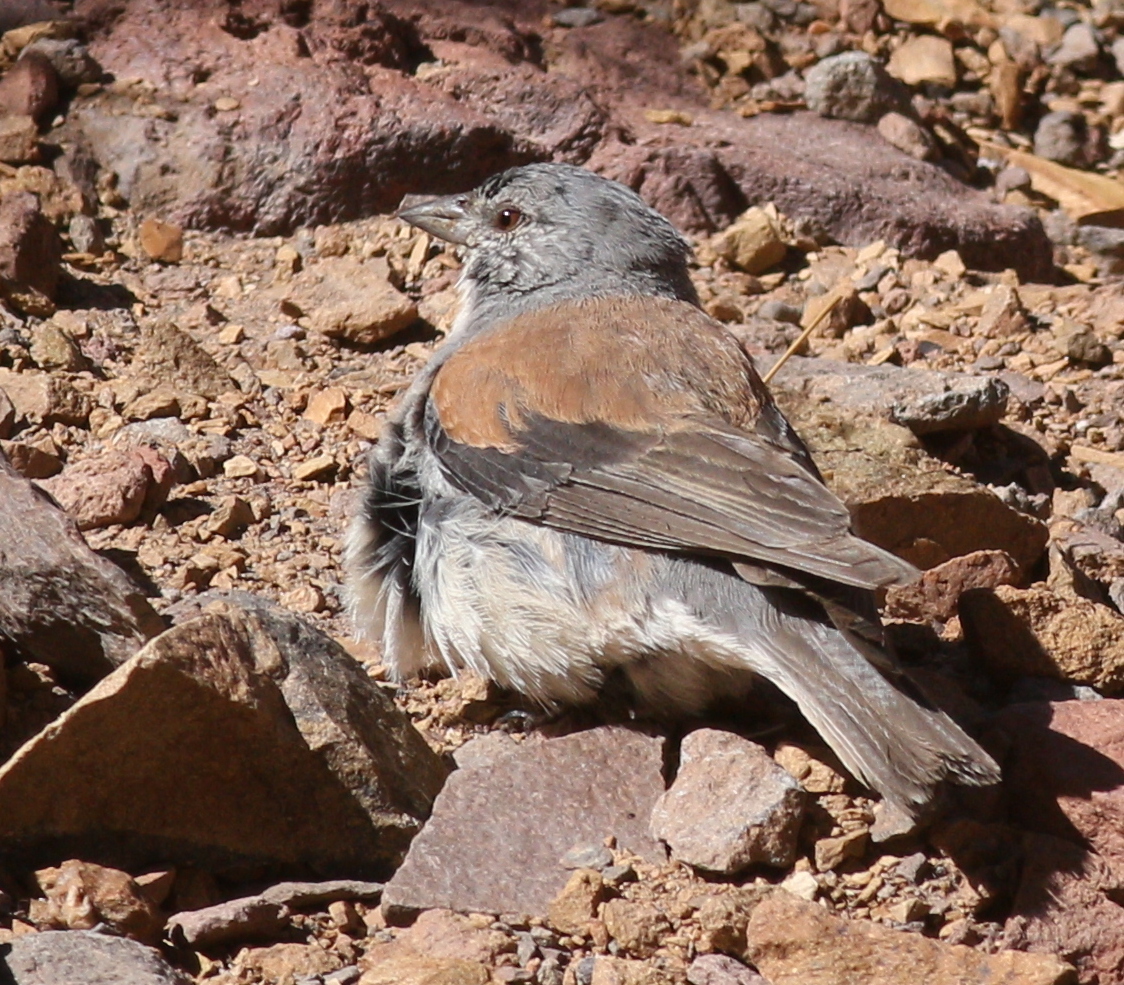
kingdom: Animalia
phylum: Chordata
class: Aves
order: Passeriformes
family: Thraupidae
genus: Idiopsar
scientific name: Idiopsar dorsalis
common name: Red-backed sierra finch
